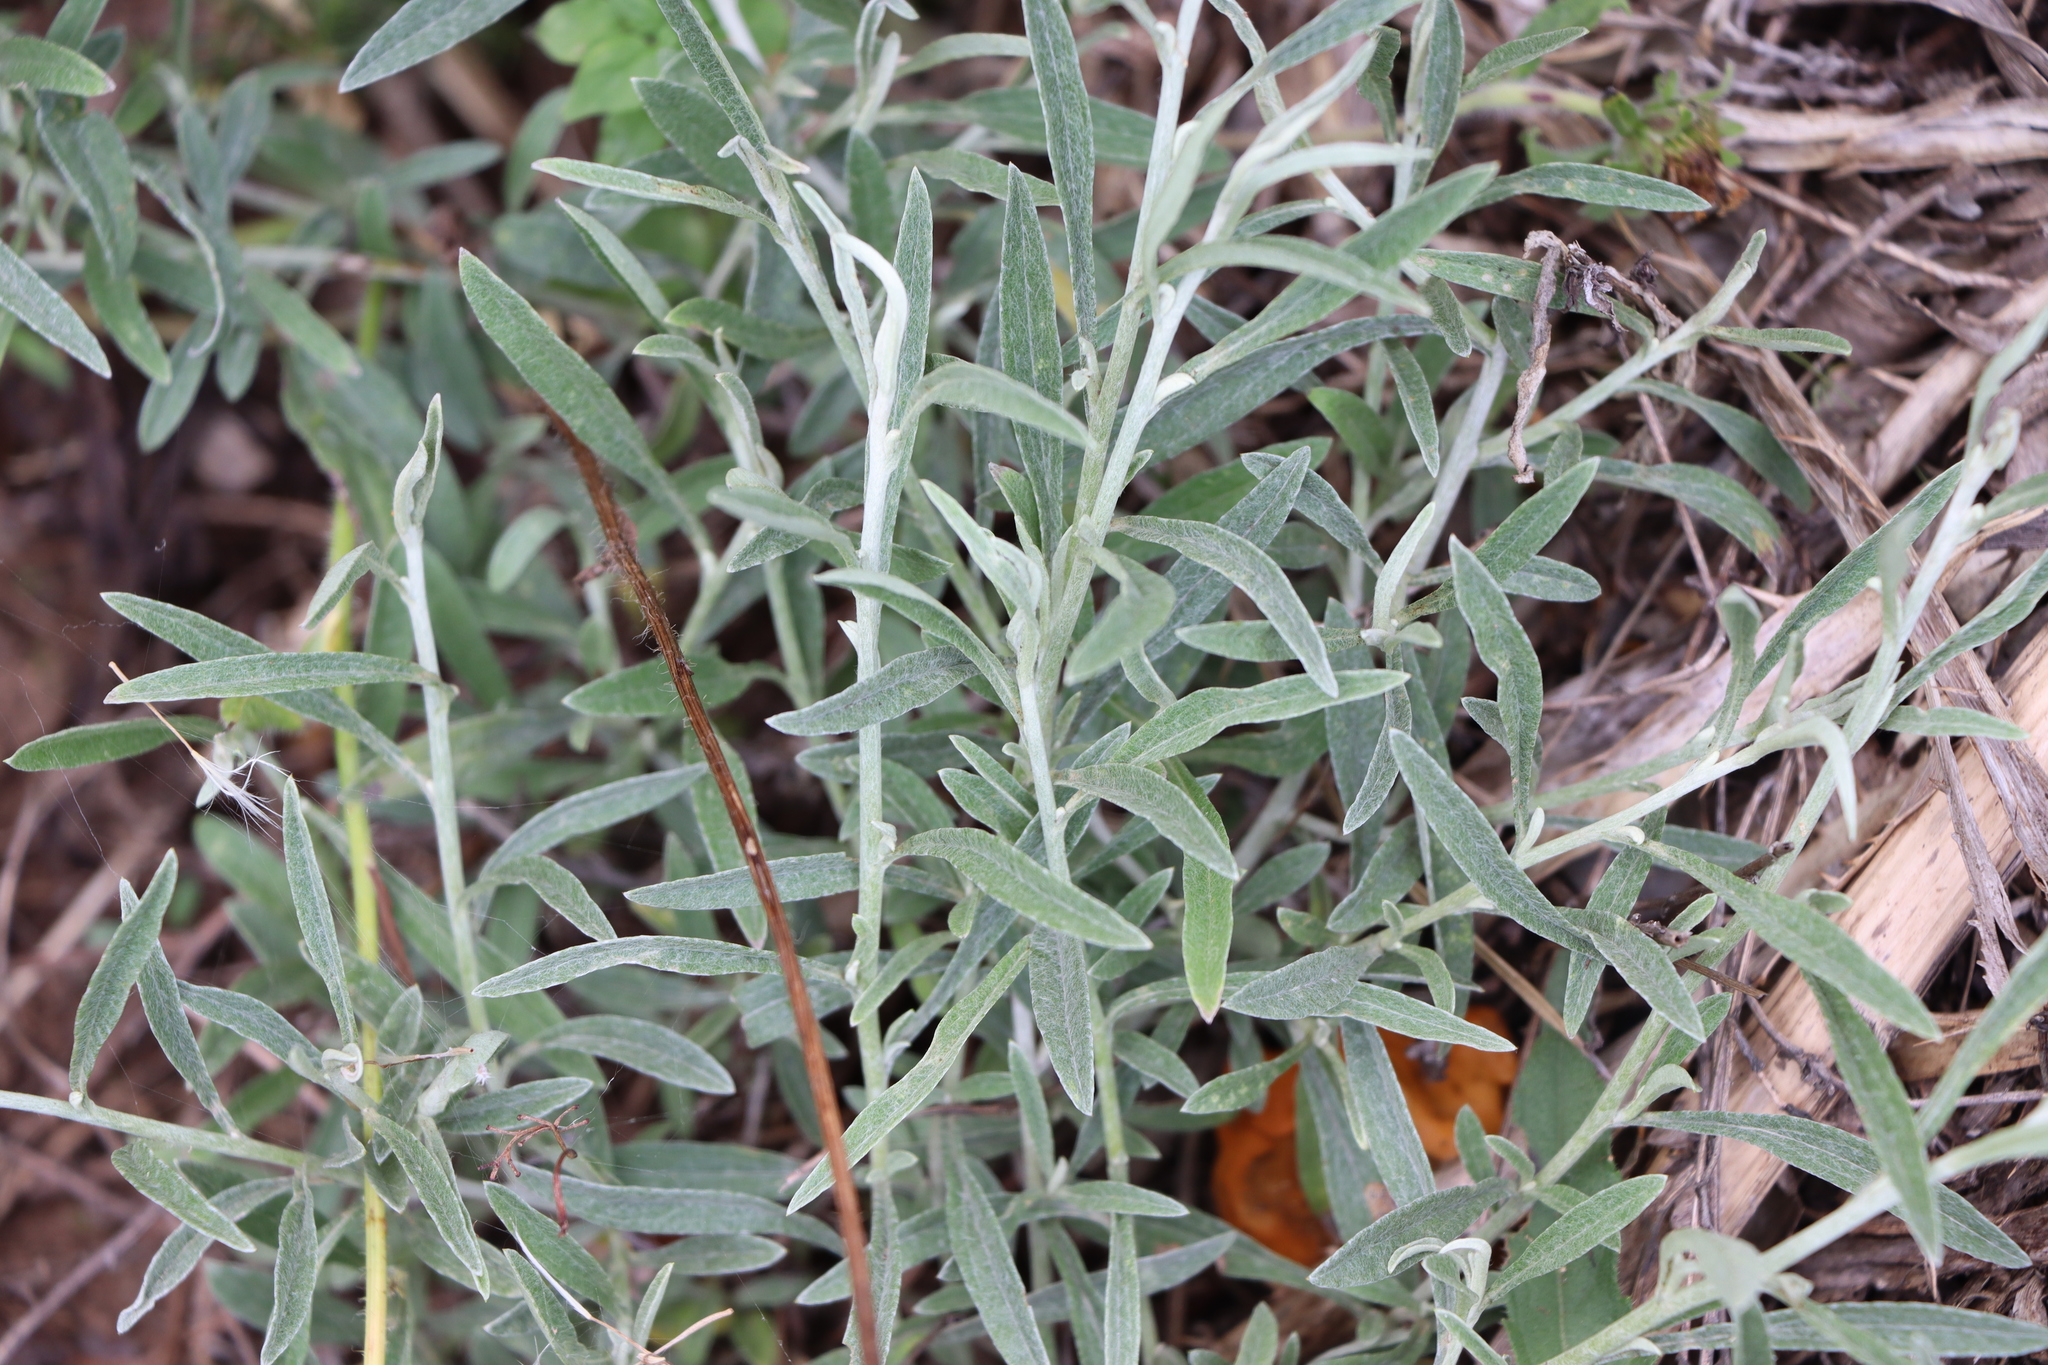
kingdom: Plantae
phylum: Tracheophyta
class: Magnoliopsida
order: Asterales
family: Asteraceae
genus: Achyrocline
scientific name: Achyrocline satureioides
